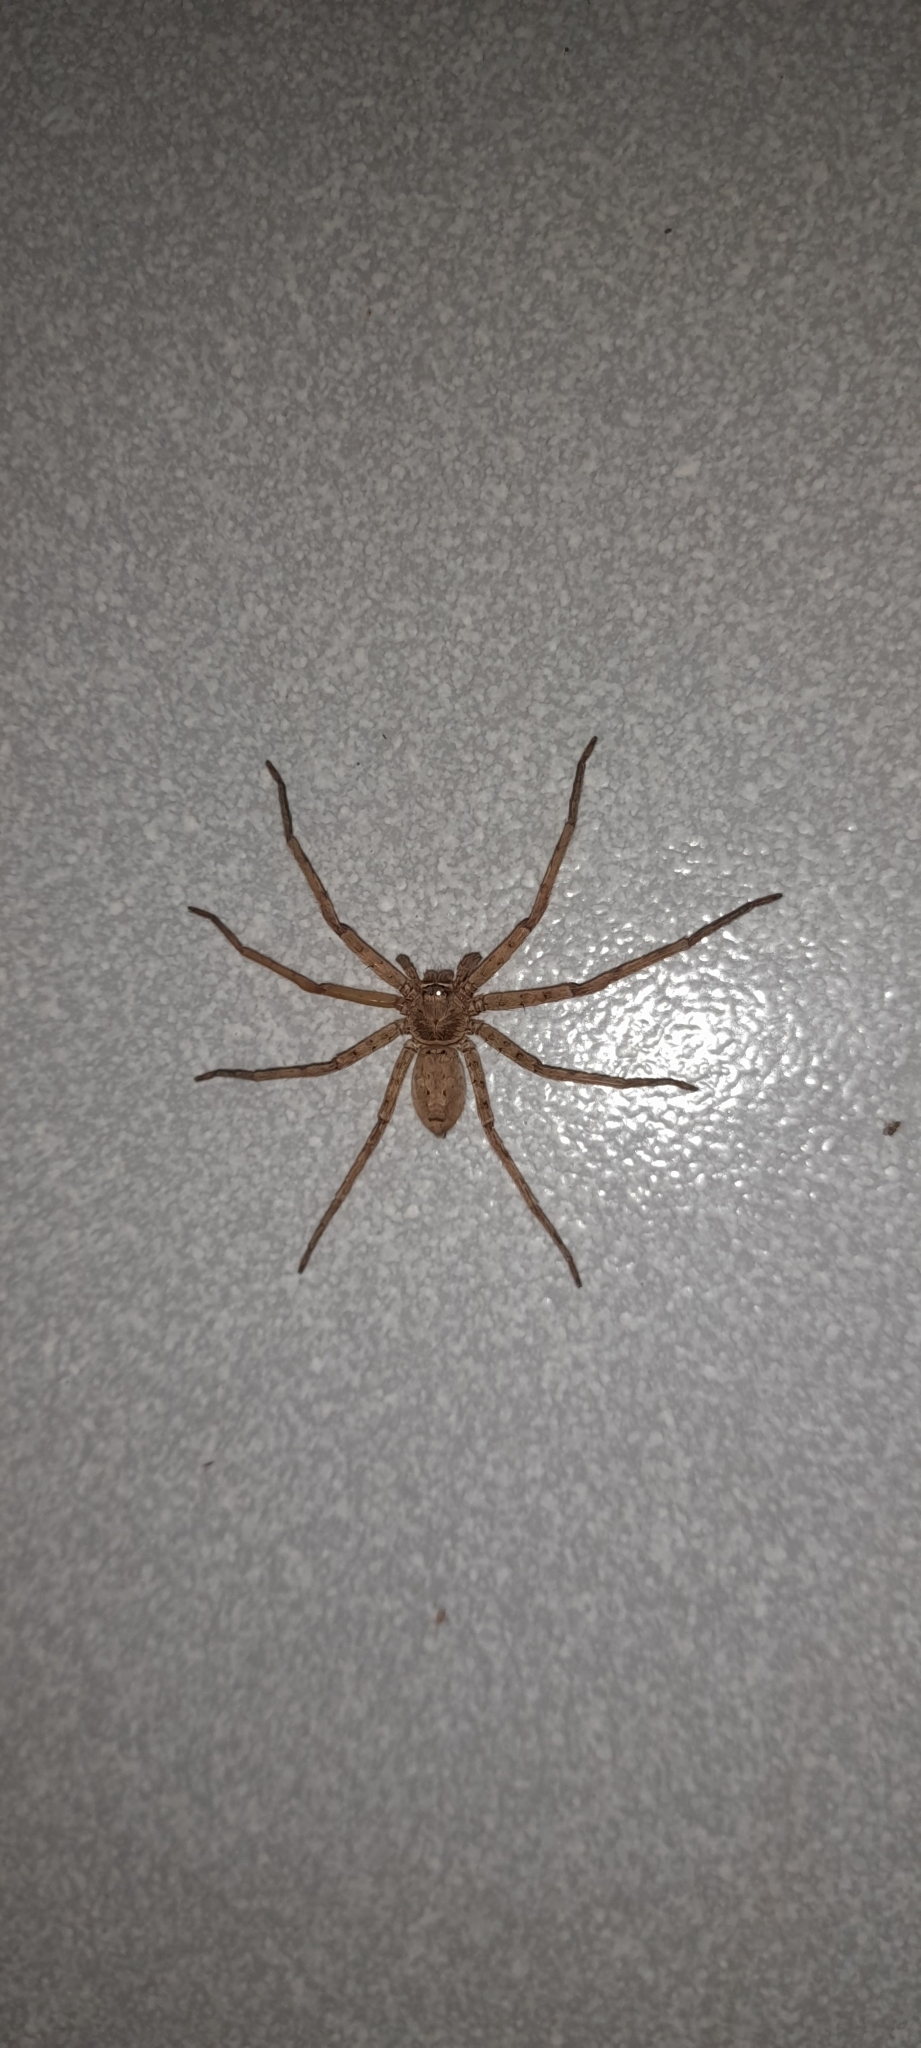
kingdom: Animalia
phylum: Arthropoda
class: Arachnida
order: Araneae
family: Sparassidae
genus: Heteropoda
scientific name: Heteropoda venatoria
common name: Huntsman spider
